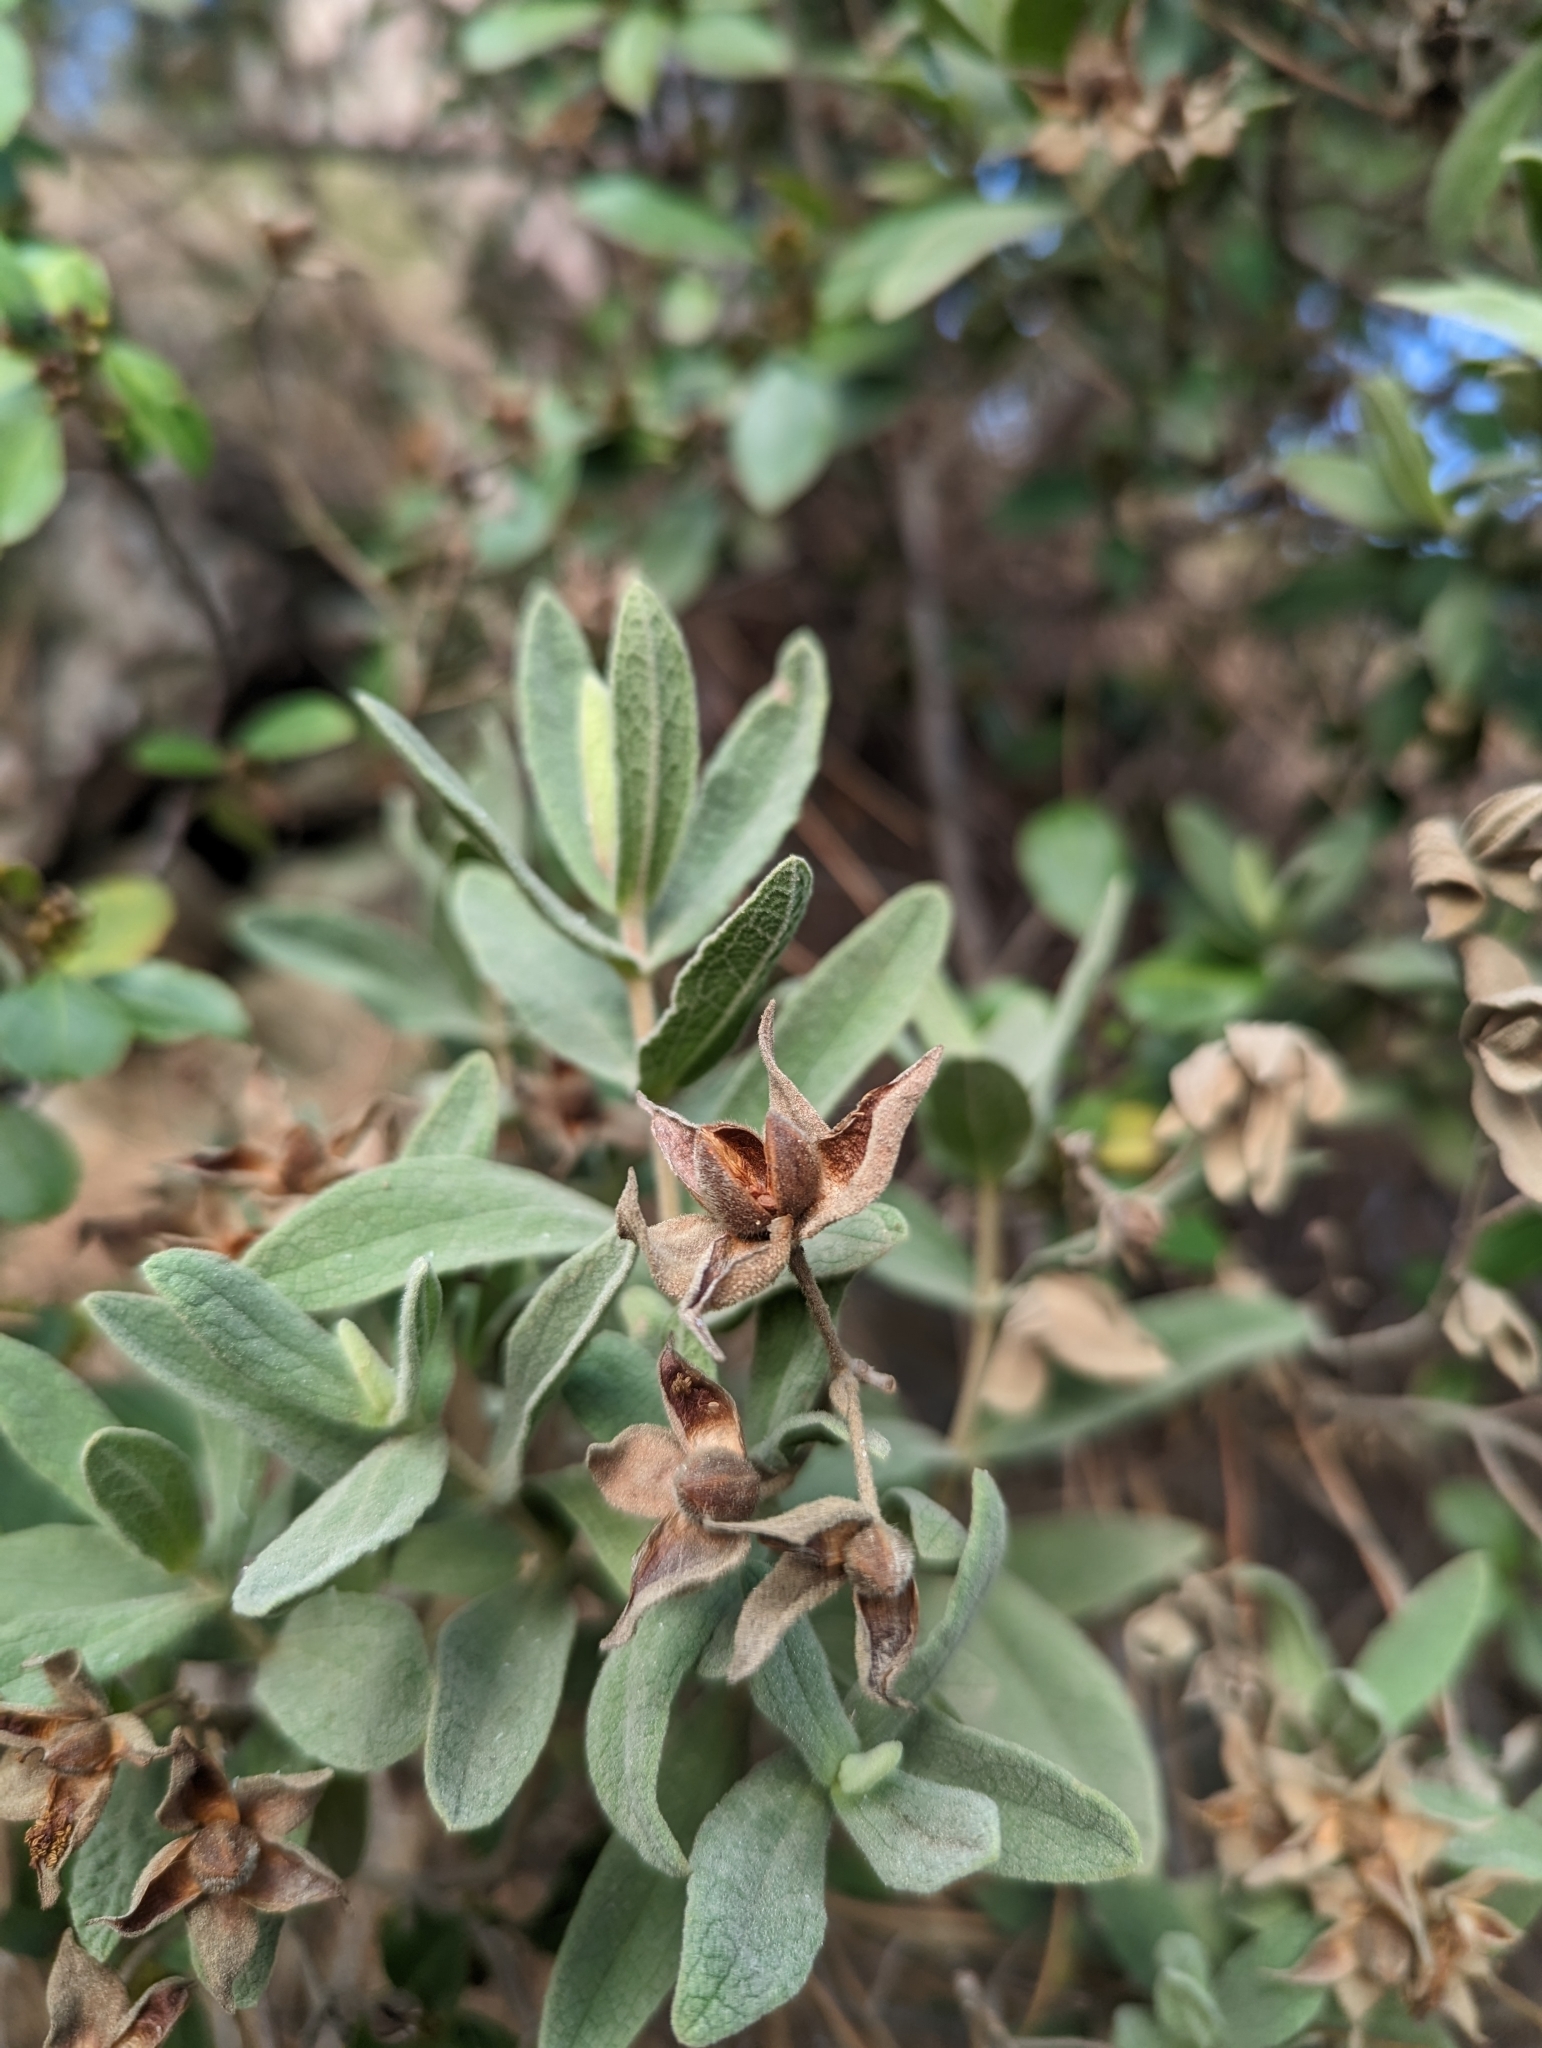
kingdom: Plantae
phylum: Tracheophyta
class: Magnoliopsida
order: Malvales
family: Cistaceae
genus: Cistus
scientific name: Cistus albidus
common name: White-leaf rock-rose
